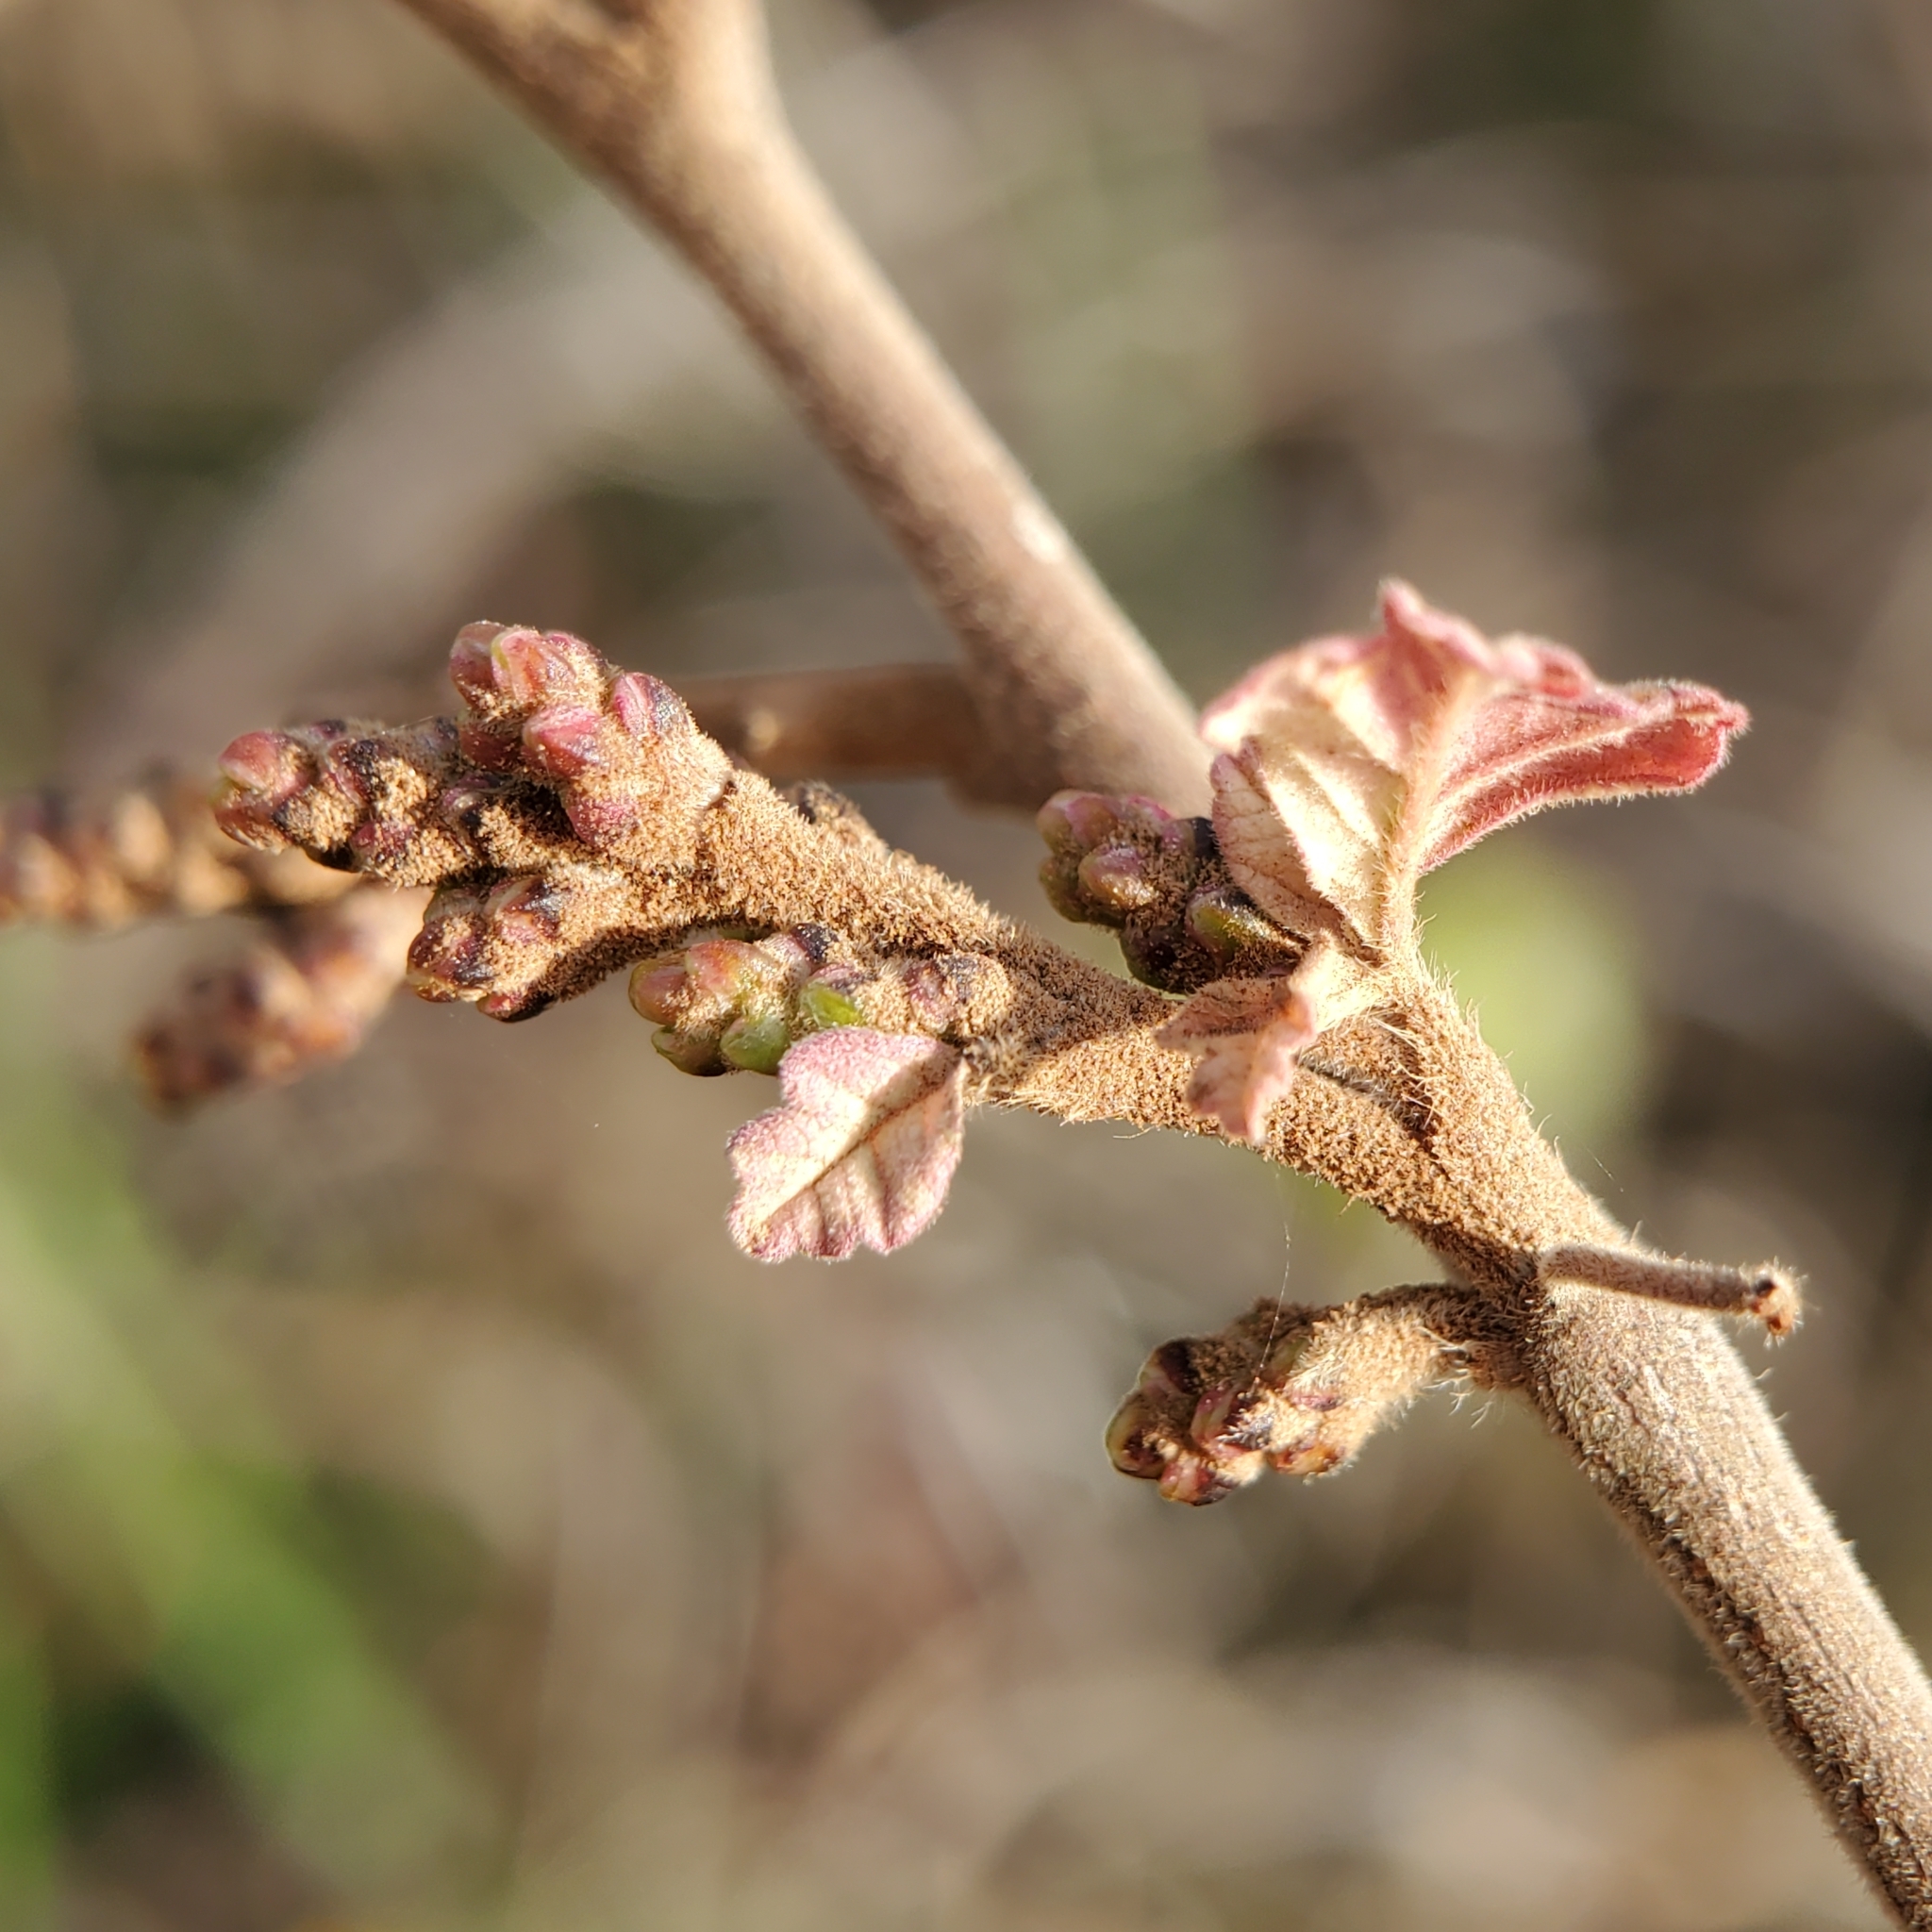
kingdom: Plantae
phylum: Tracheophyta
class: Magnoliopsida
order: Sapindales
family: Anacardiaceae
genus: Rhus
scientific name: Rhus aromatica
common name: Aromatic sumac
